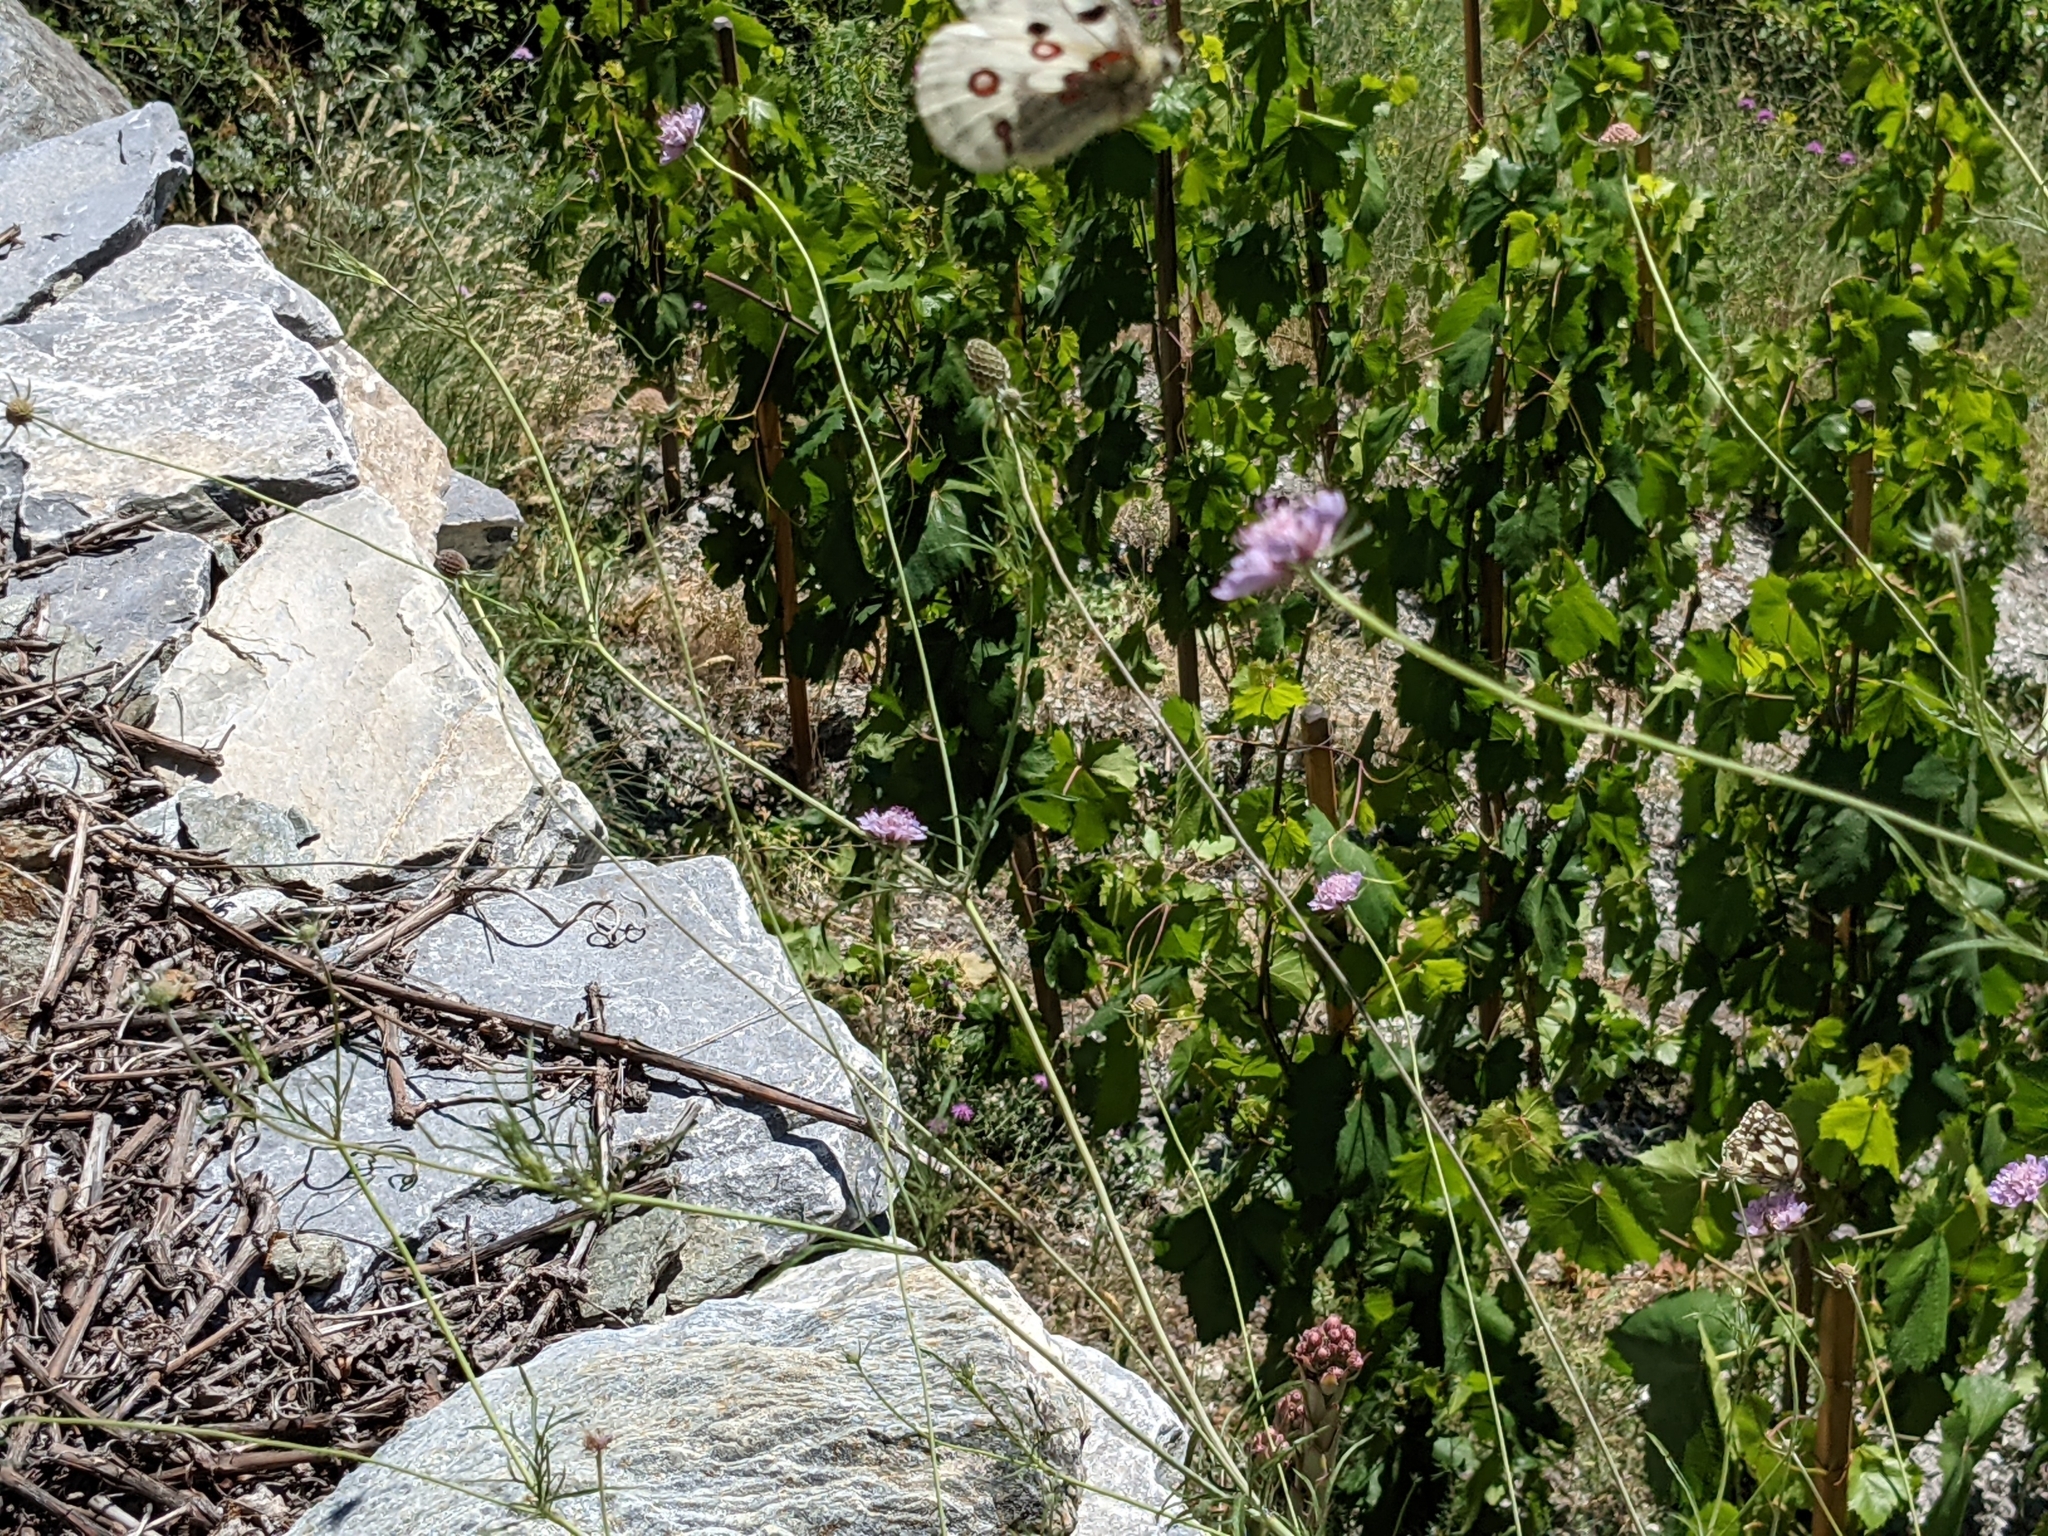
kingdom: Animalia
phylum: Arthropoda
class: Insecta
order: Lepidoptera
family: Papilionidae
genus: Parnassius
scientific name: Parnassius apollo
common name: Apollo
